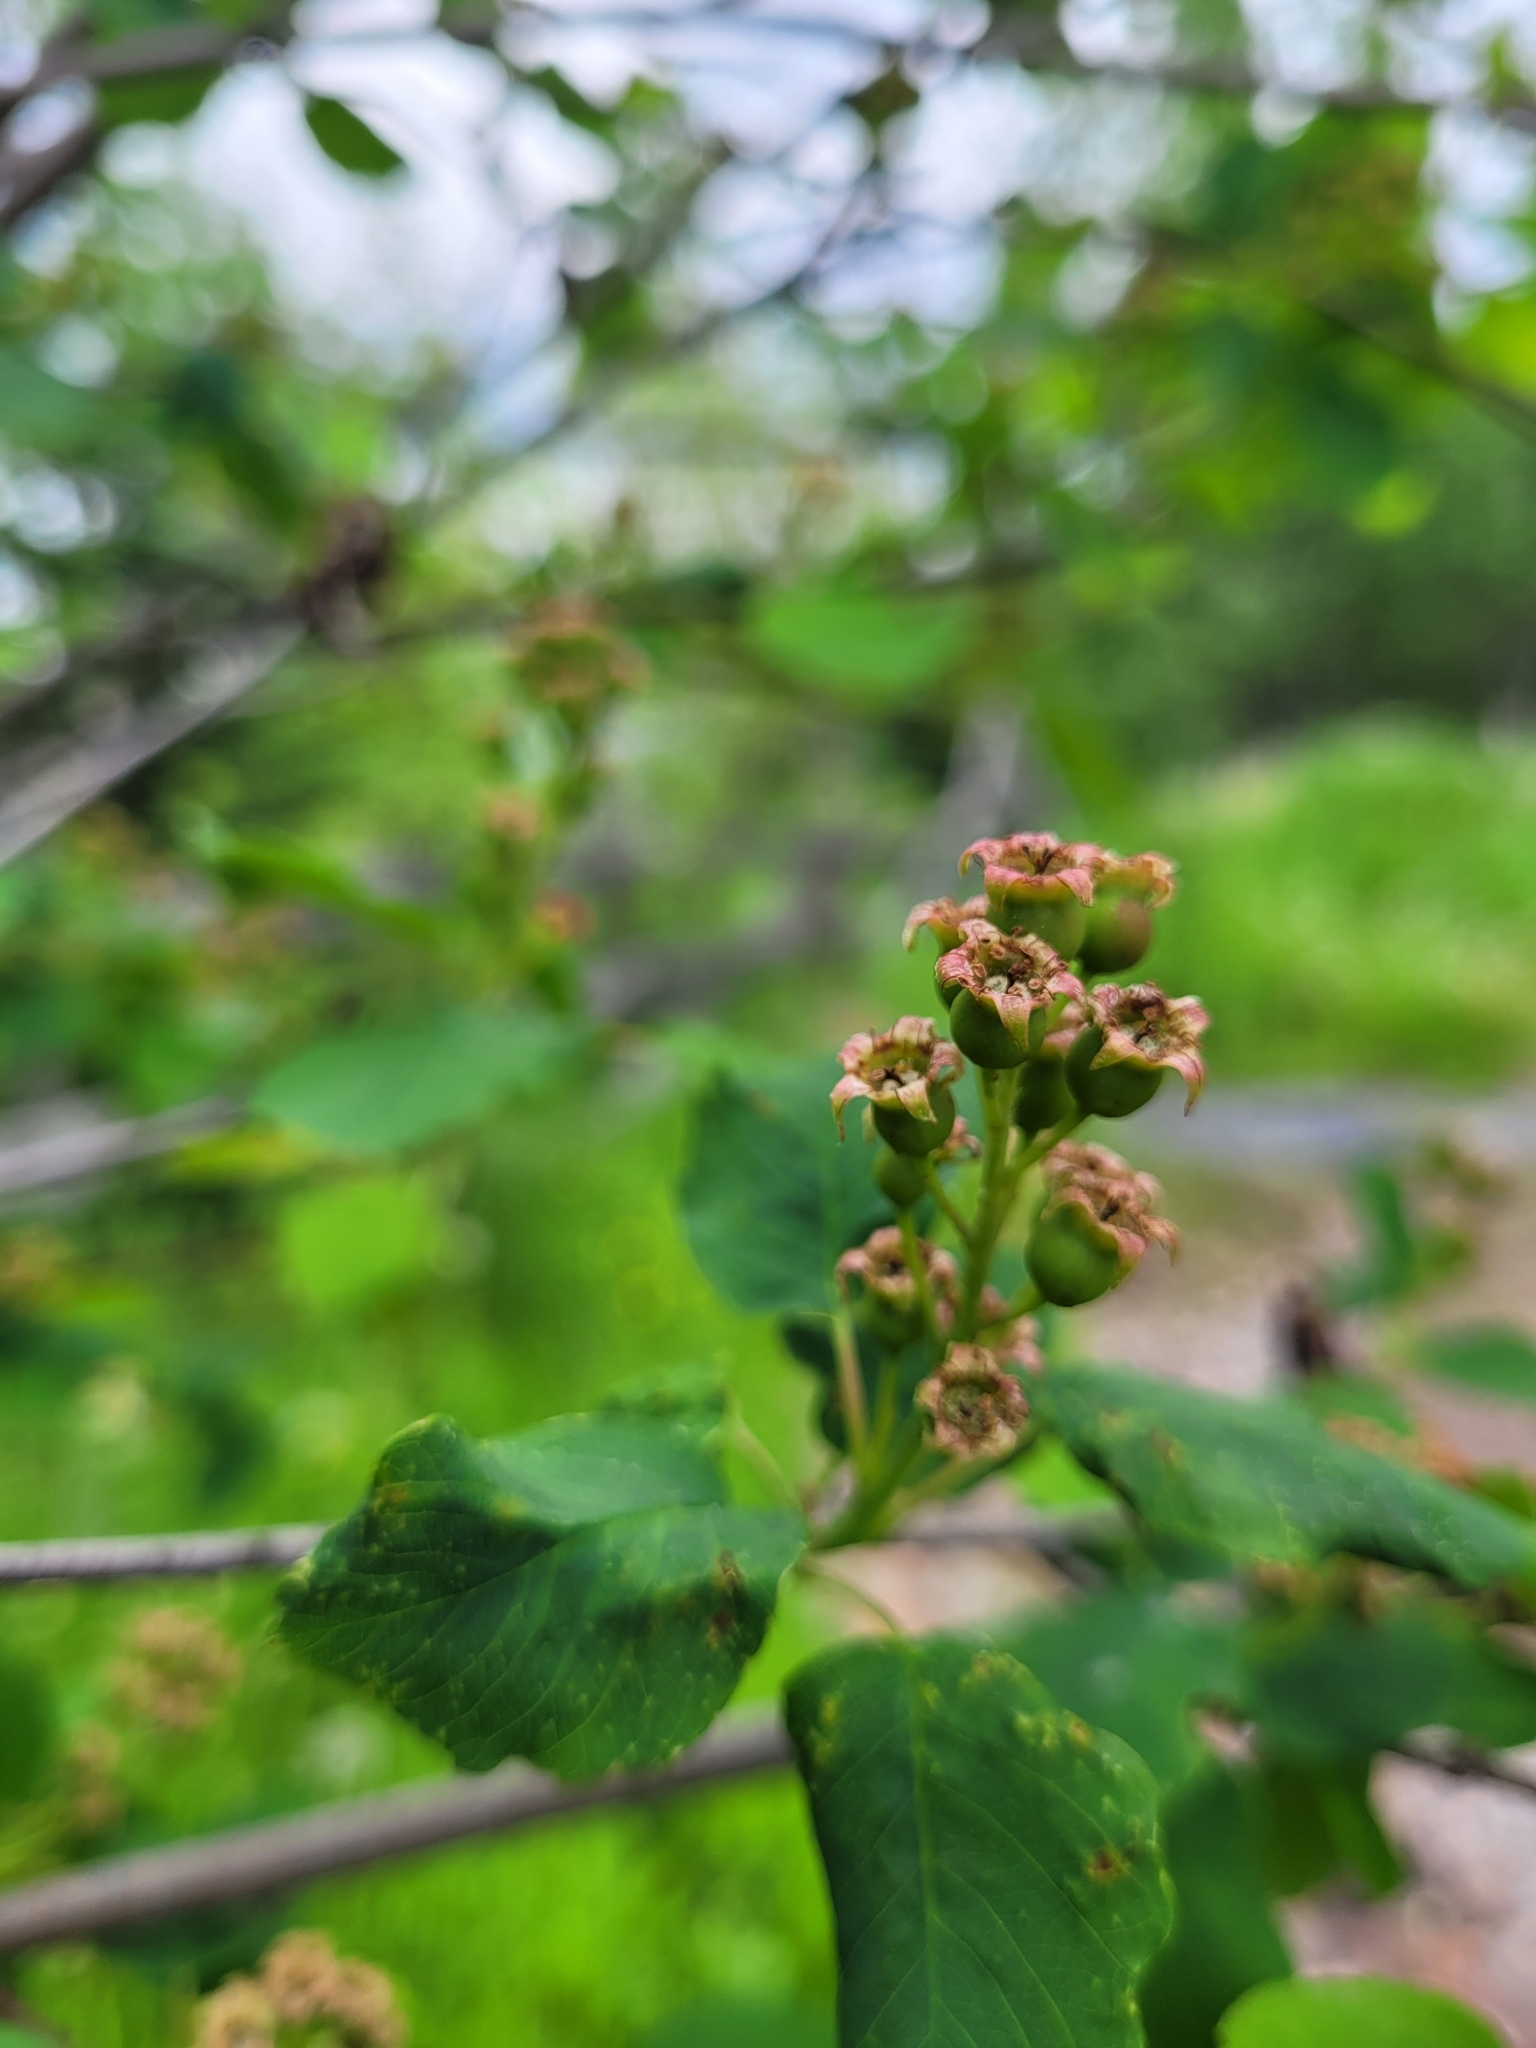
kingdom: Plantae
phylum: Tracheophyta
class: Magnoliopsida
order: Rosales
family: Rosaceae
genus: Amelanchier
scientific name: Amelanchier alnifolia
